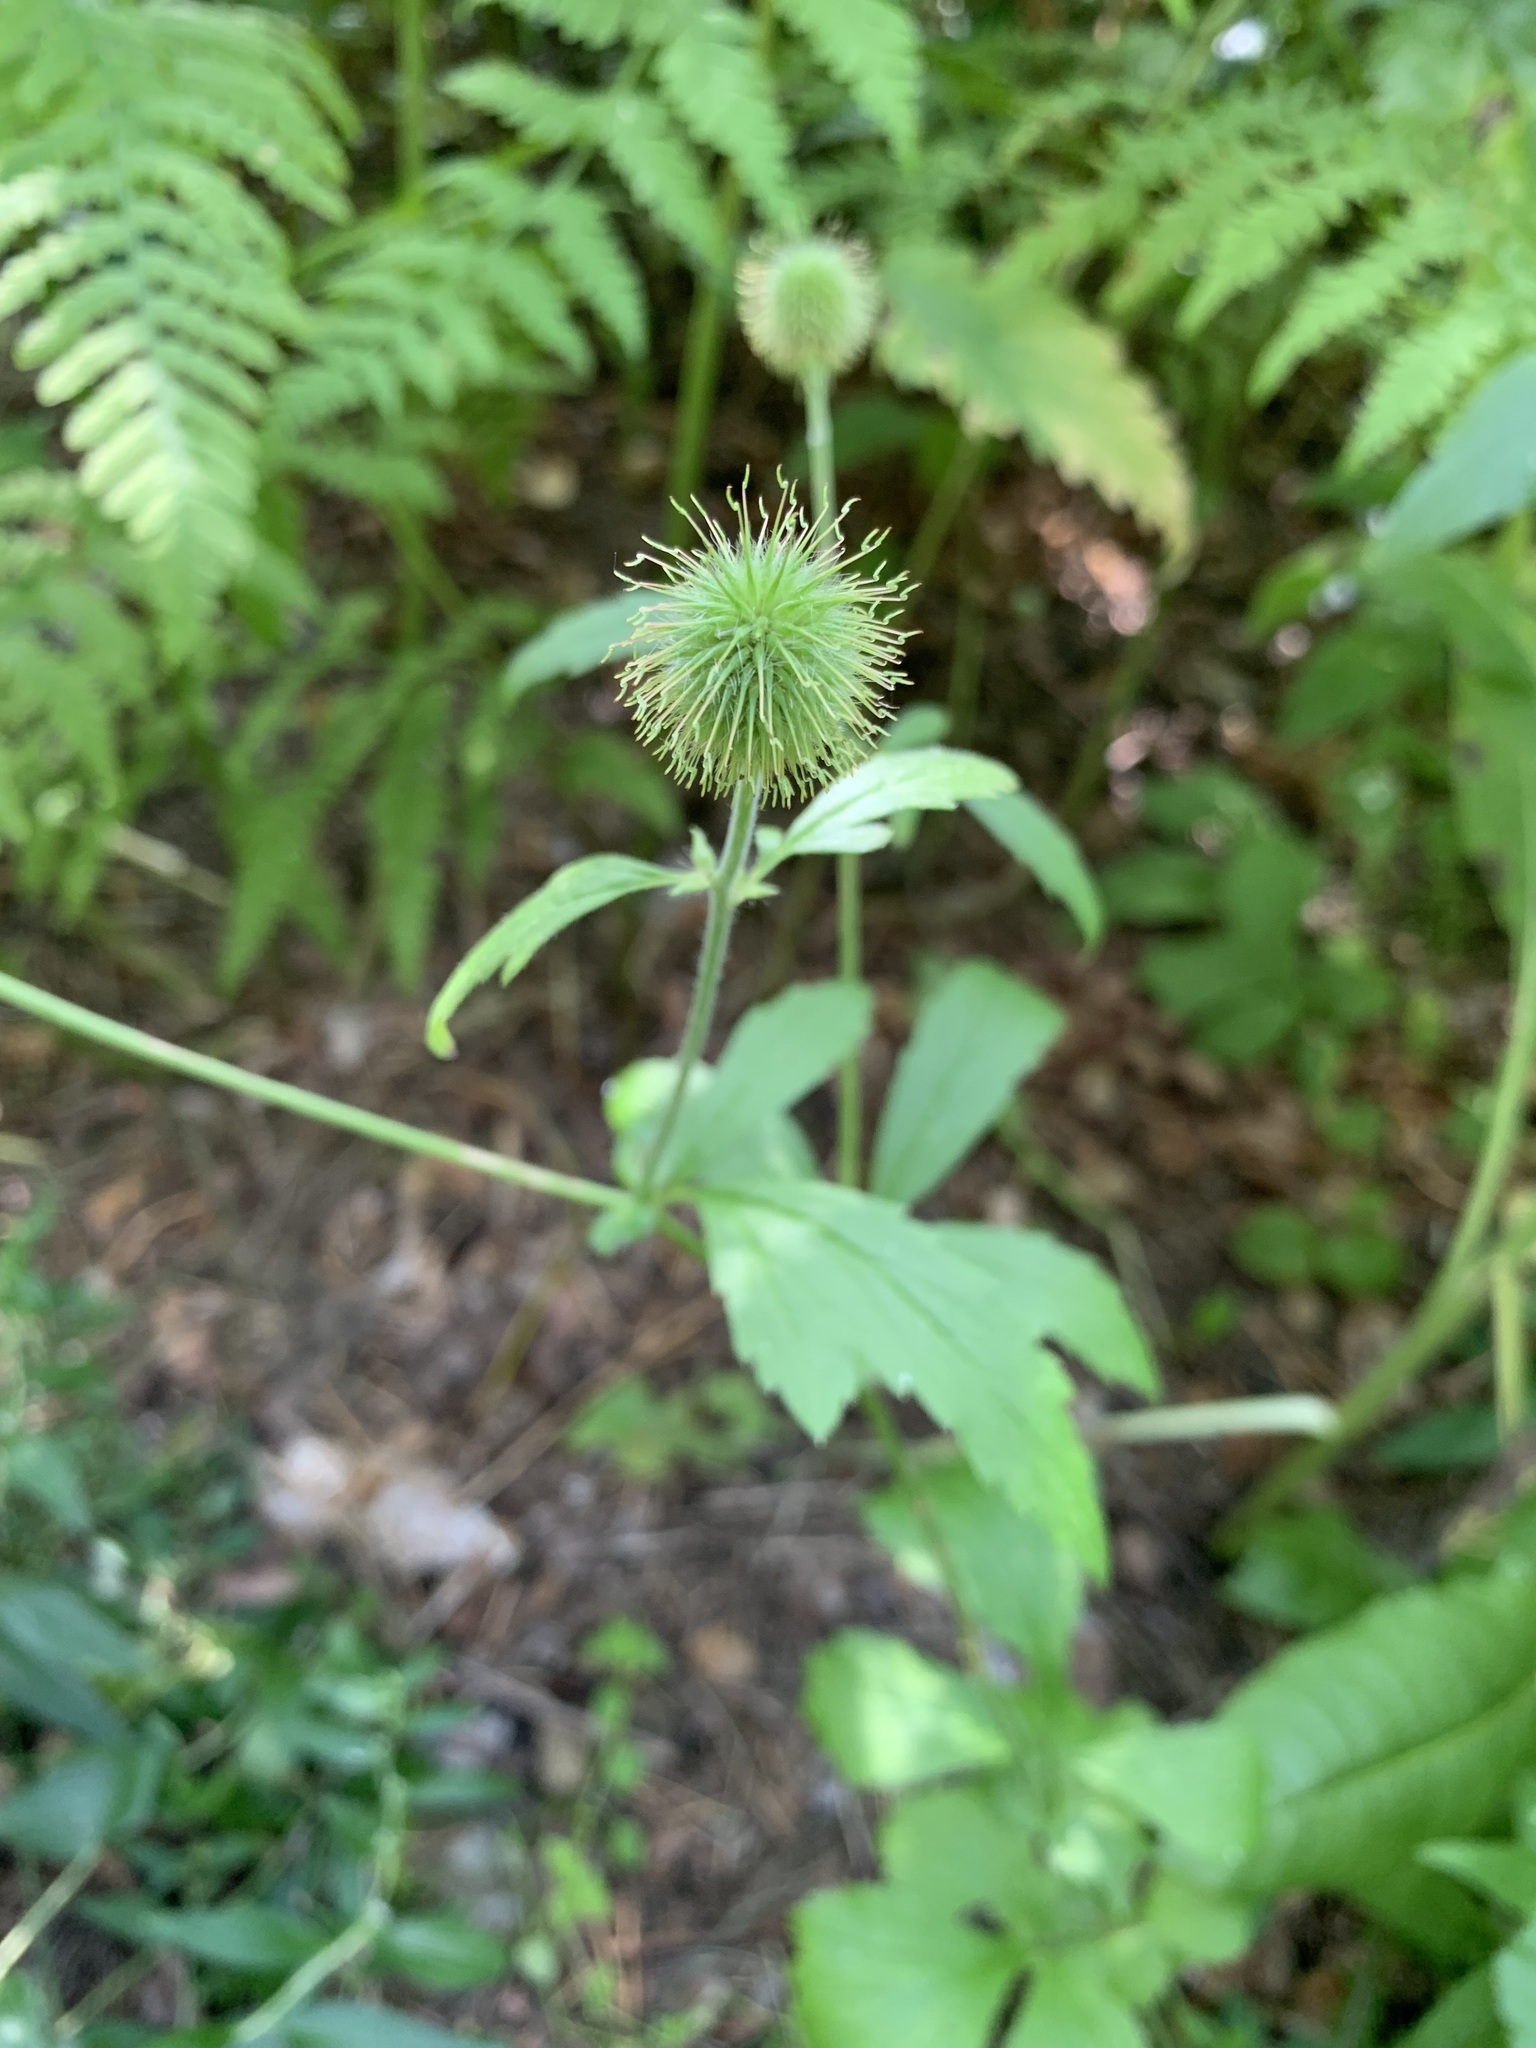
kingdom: Plantae
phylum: Tracheophyta
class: Magnoliopsida
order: Rosales
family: Rosaceae
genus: Geum
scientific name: Geum aleppicum
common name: Yellow avens
